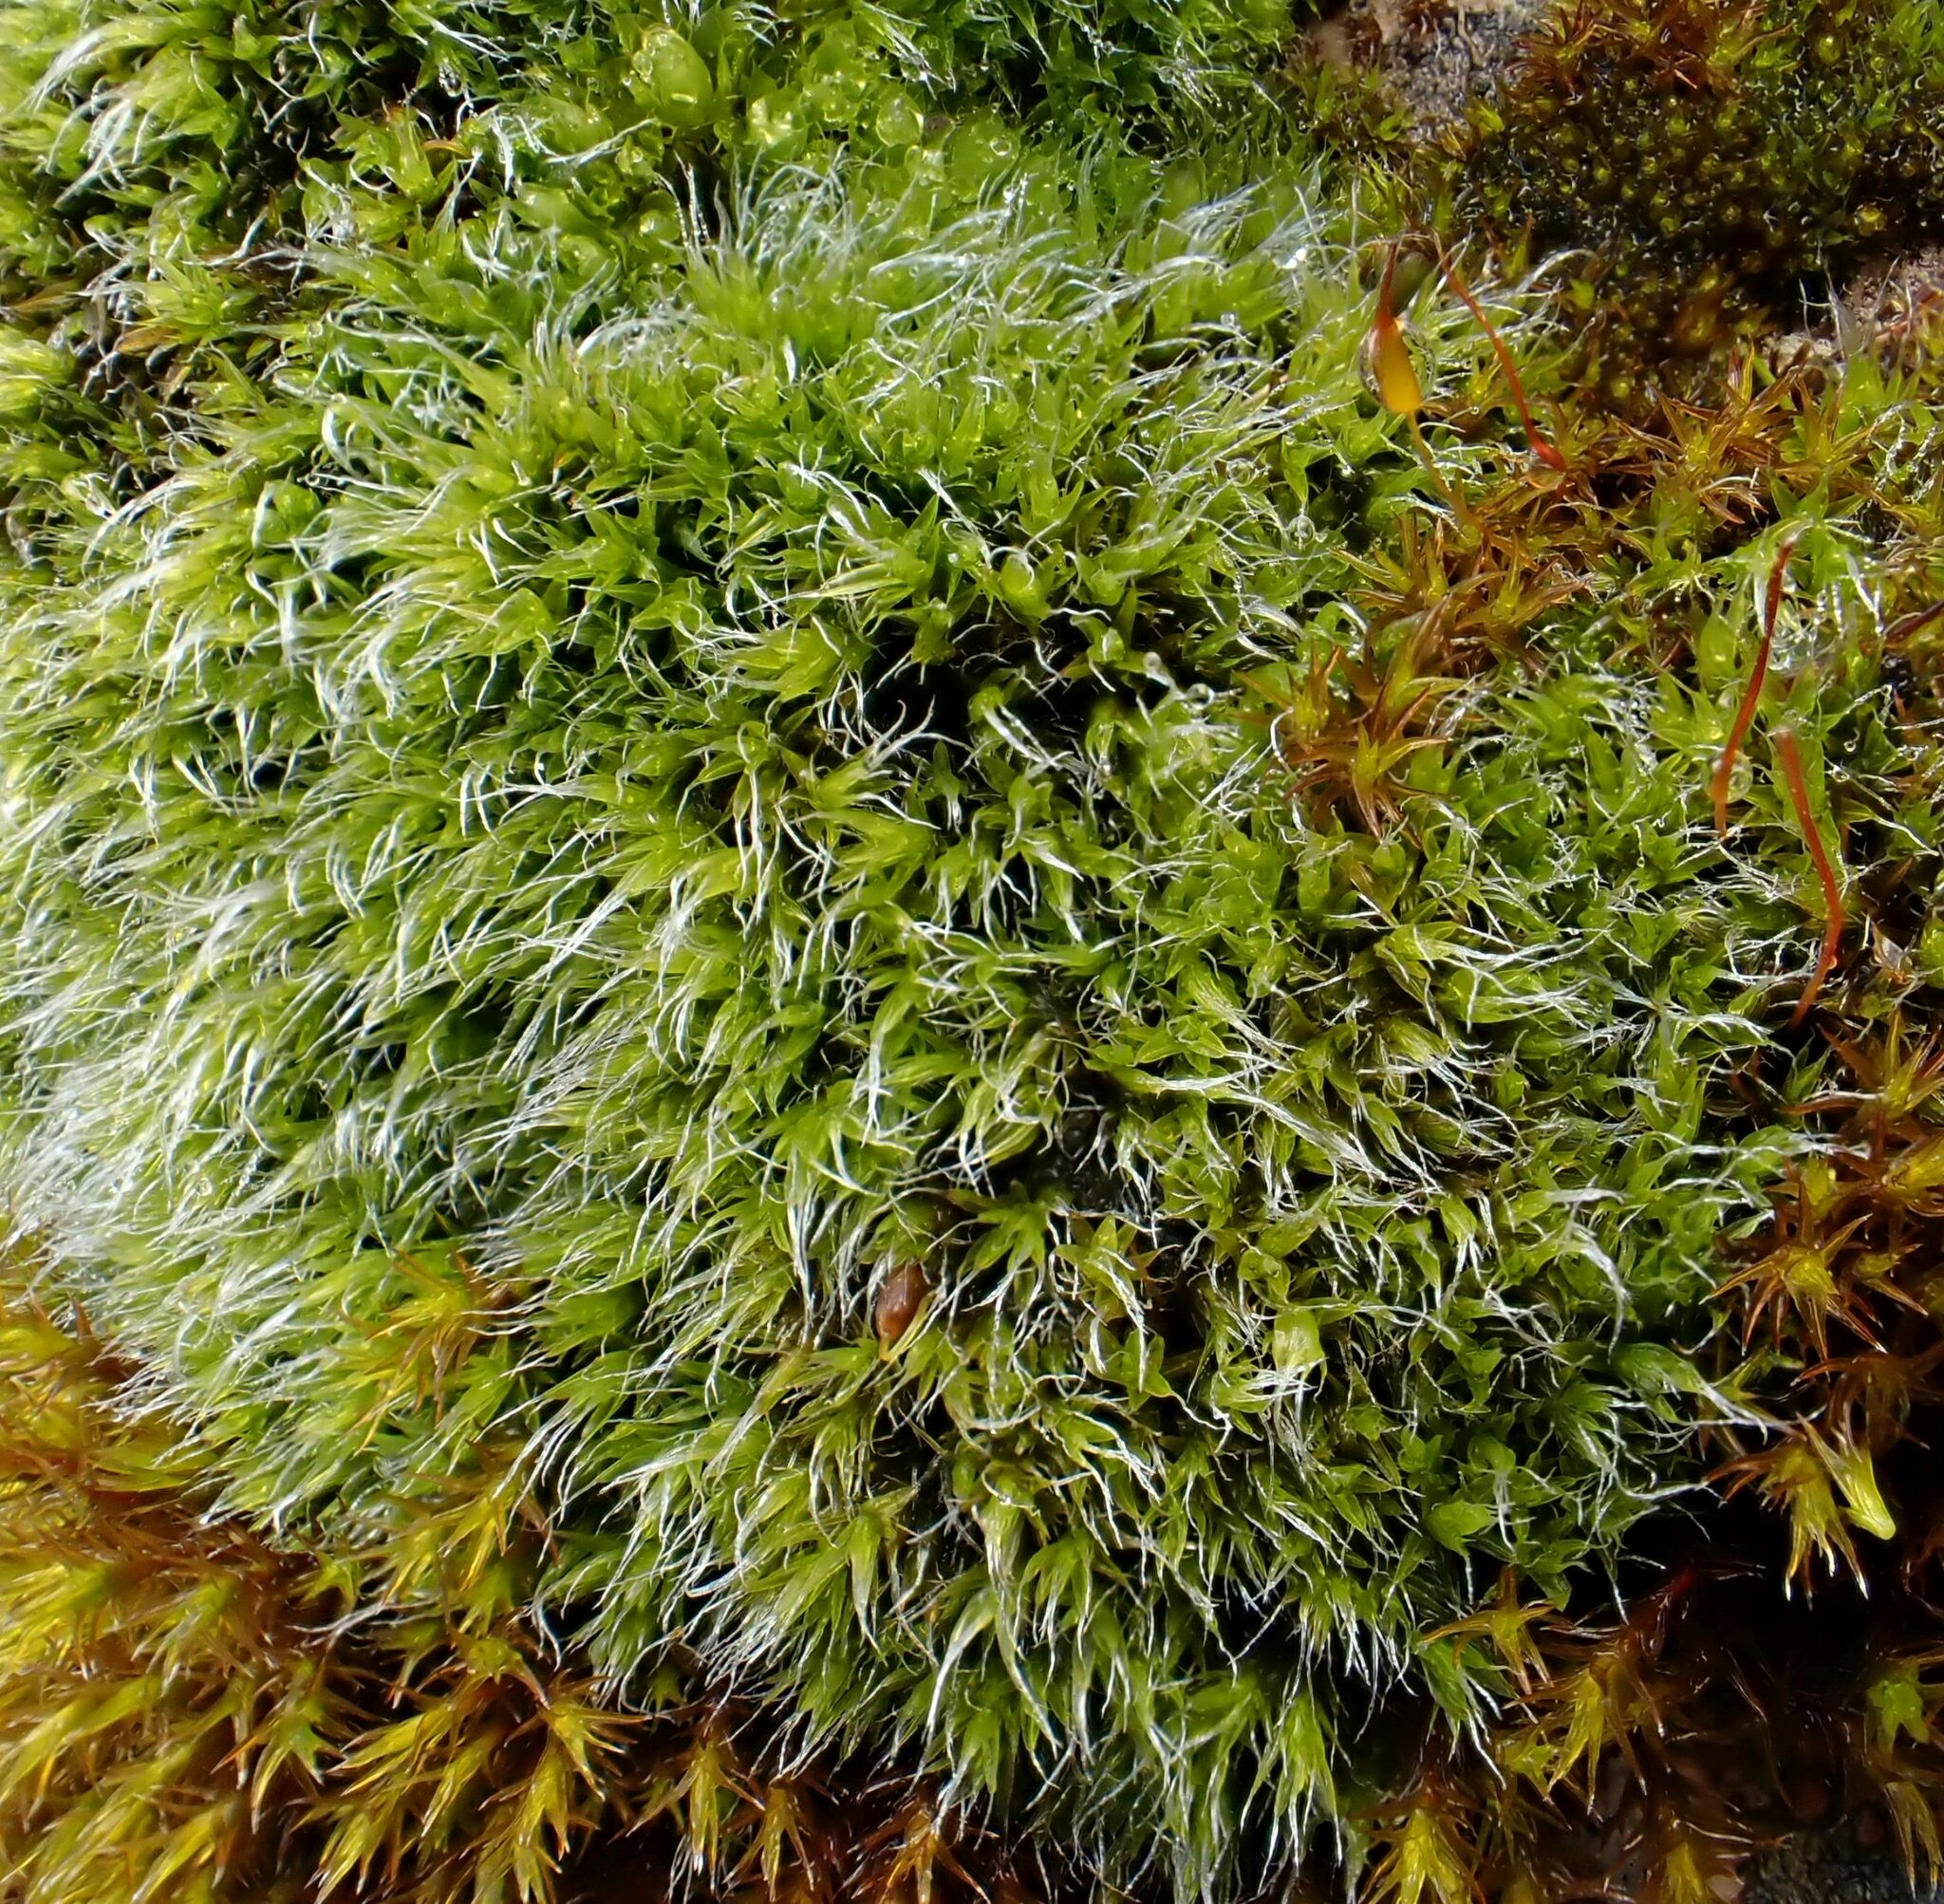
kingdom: Plantae
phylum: Bryophyta
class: Bryopsida
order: Grimmiales
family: Grimmiaceae
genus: Grimmia
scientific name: Grimmia pulvinata
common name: Grey-cushioned grimmia
